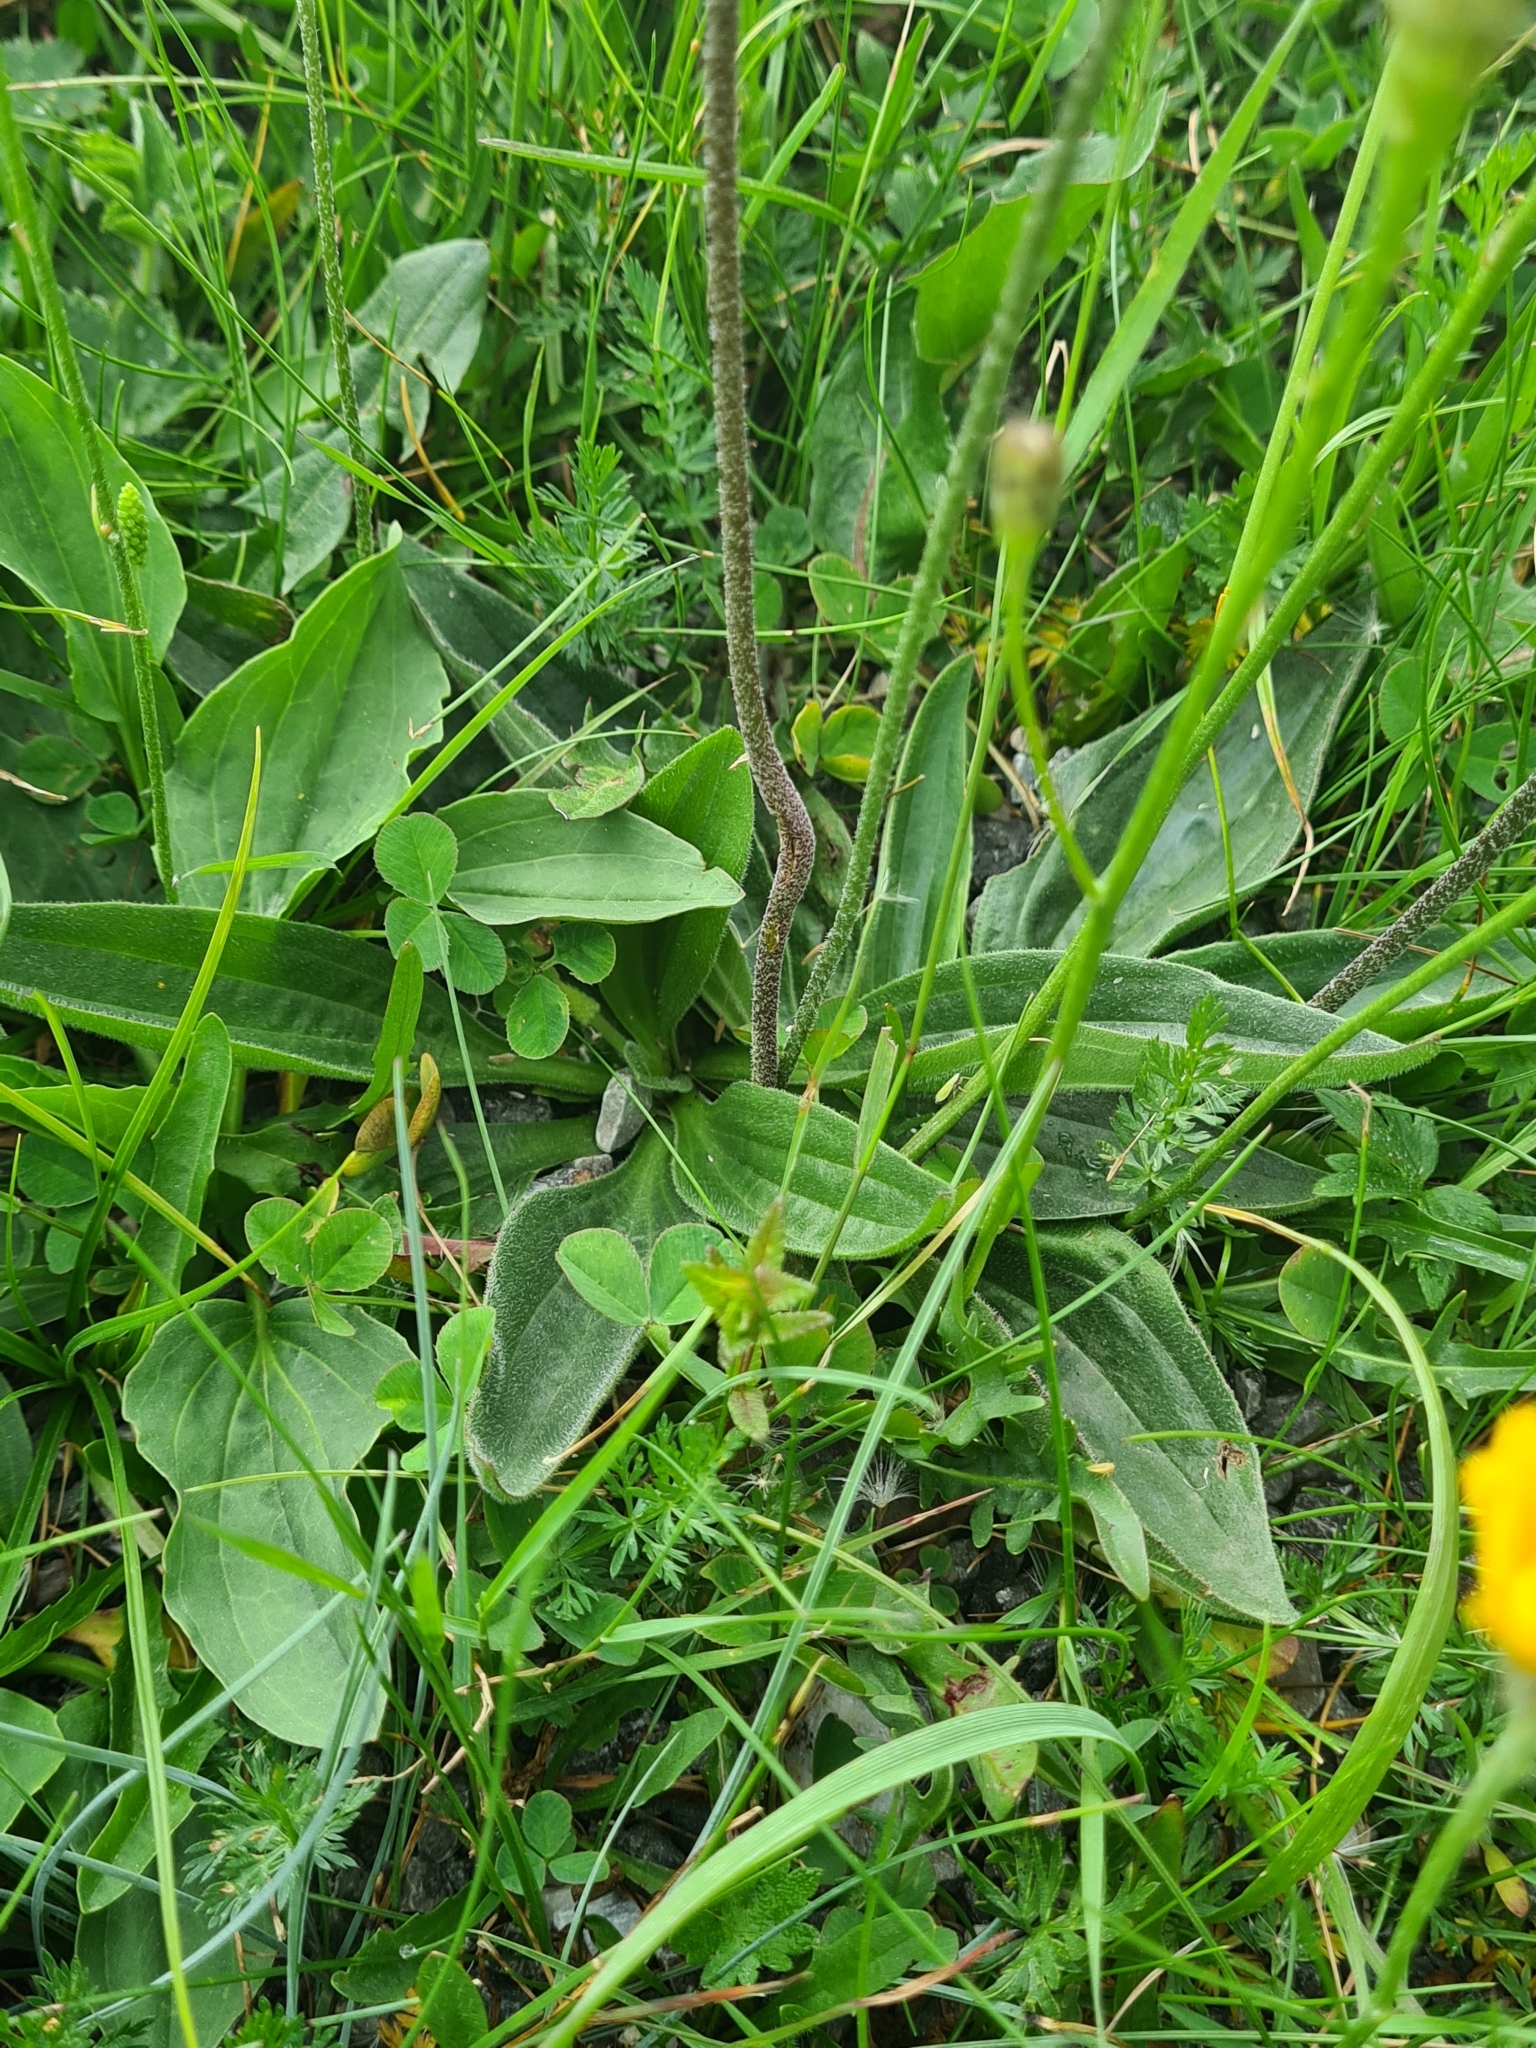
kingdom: Plantae
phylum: Tracheophyta
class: Magnoliopsida
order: Lamiales
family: Plantaginaceae
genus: Plantago
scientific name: Plantago media
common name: Hoary plantain
